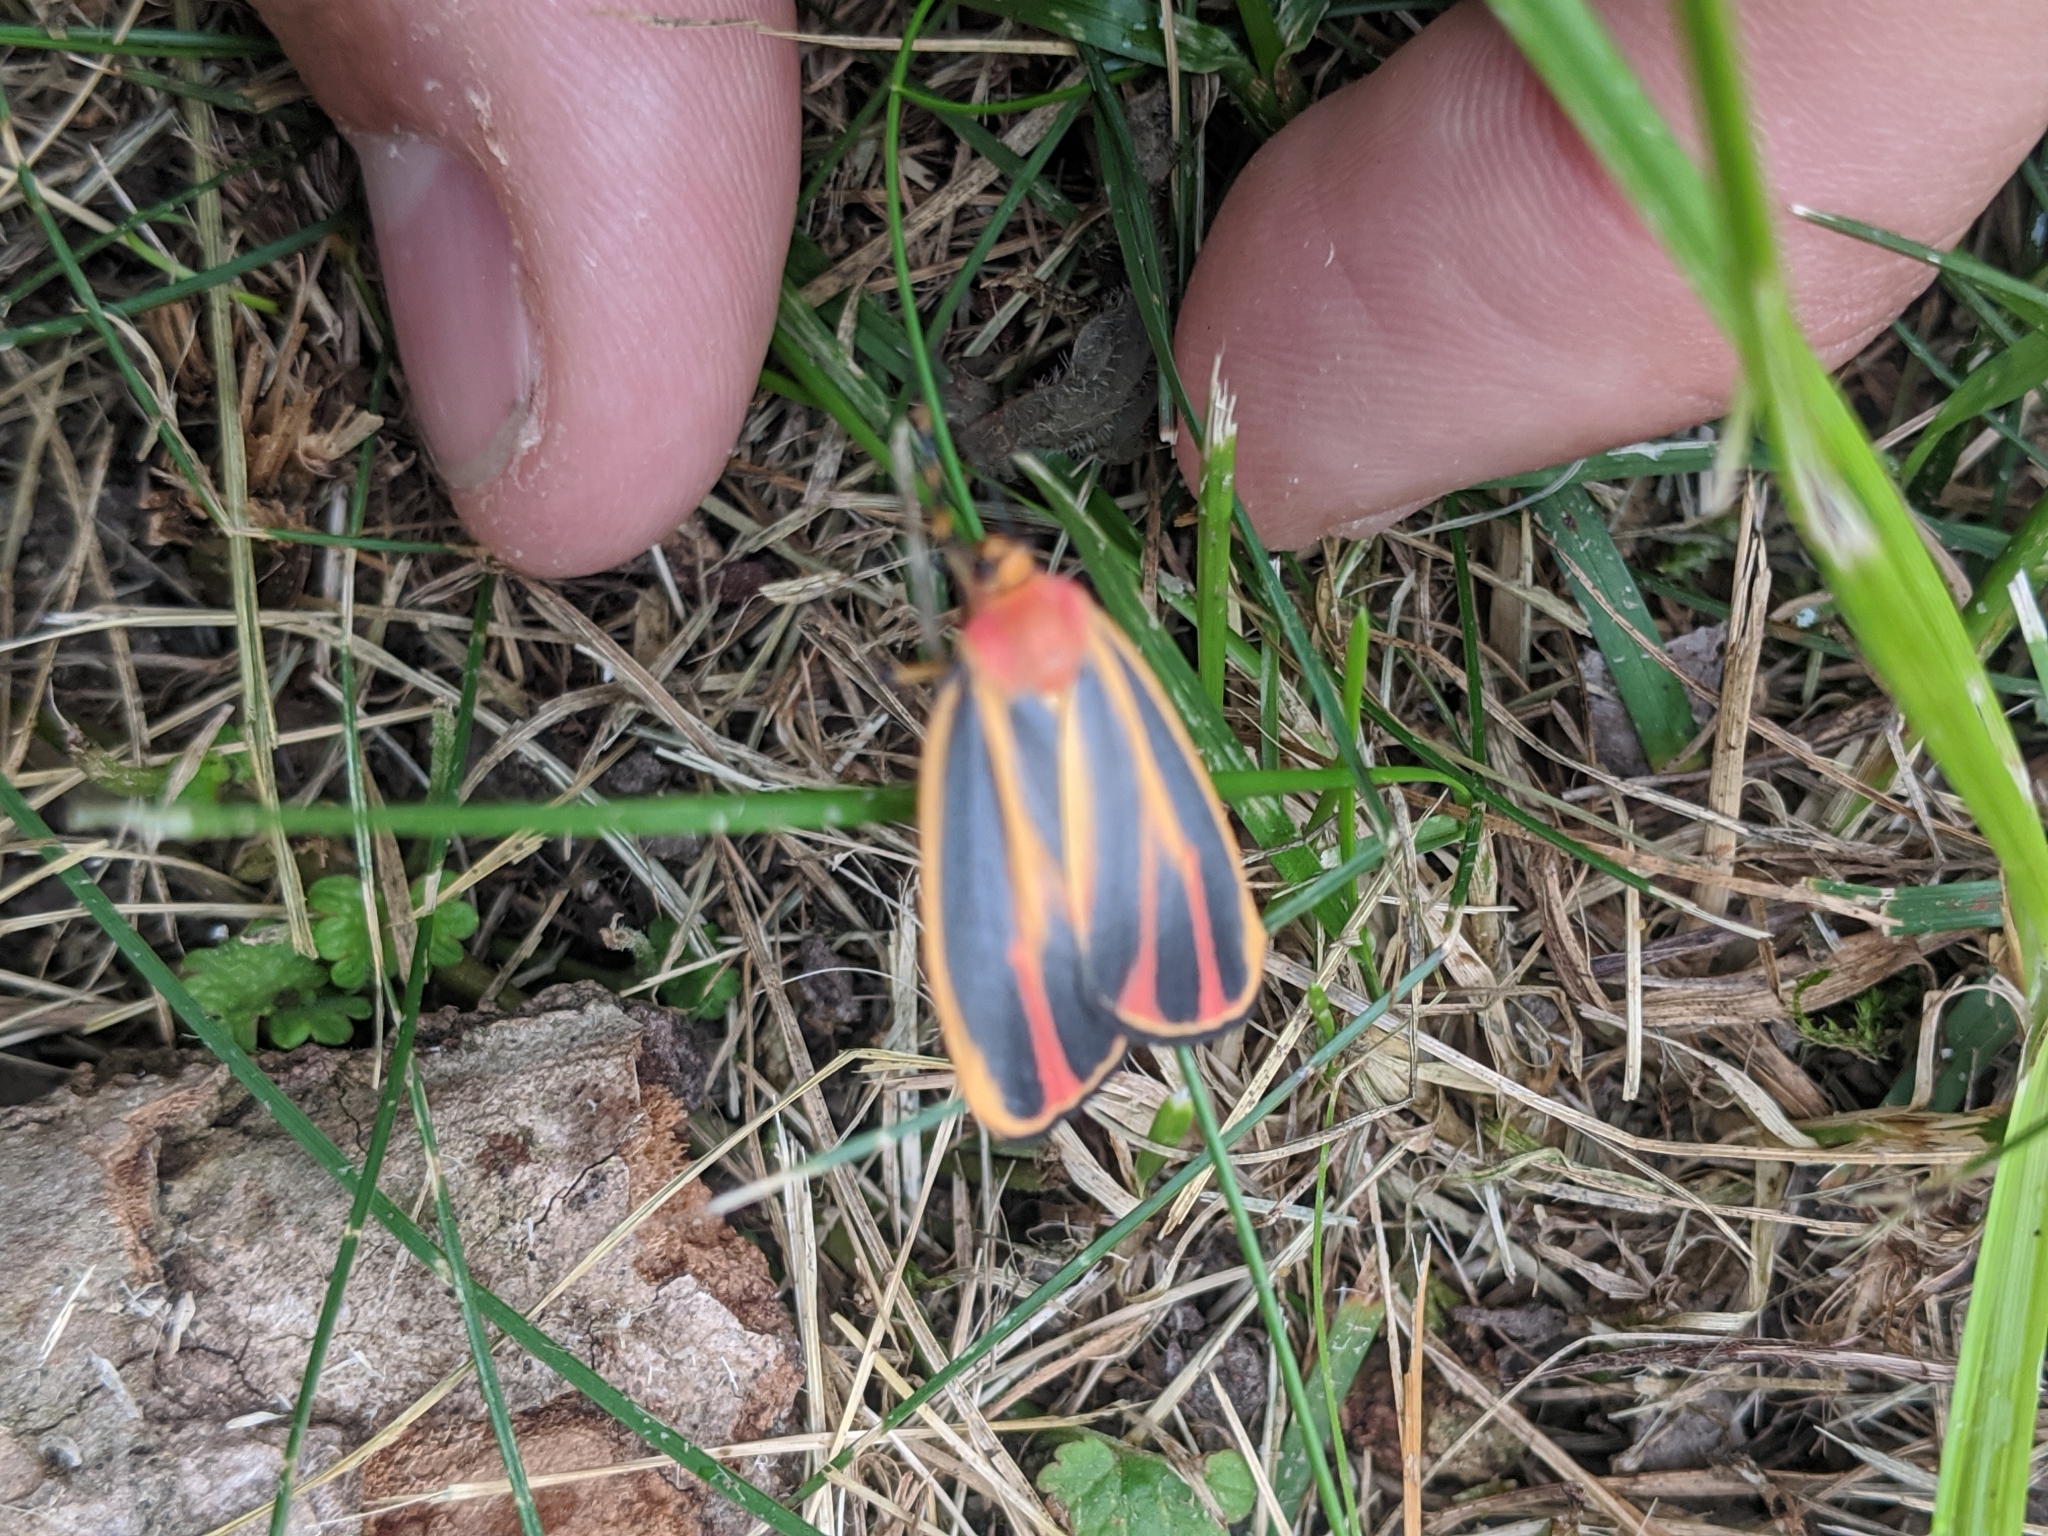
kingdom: Animalia
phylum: Arthropoda
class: Insecta
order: Lepidoptera
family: Erebidae
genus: Hypoprepia
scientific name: Hypoprepia fucosa
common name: Painted lichen moth
